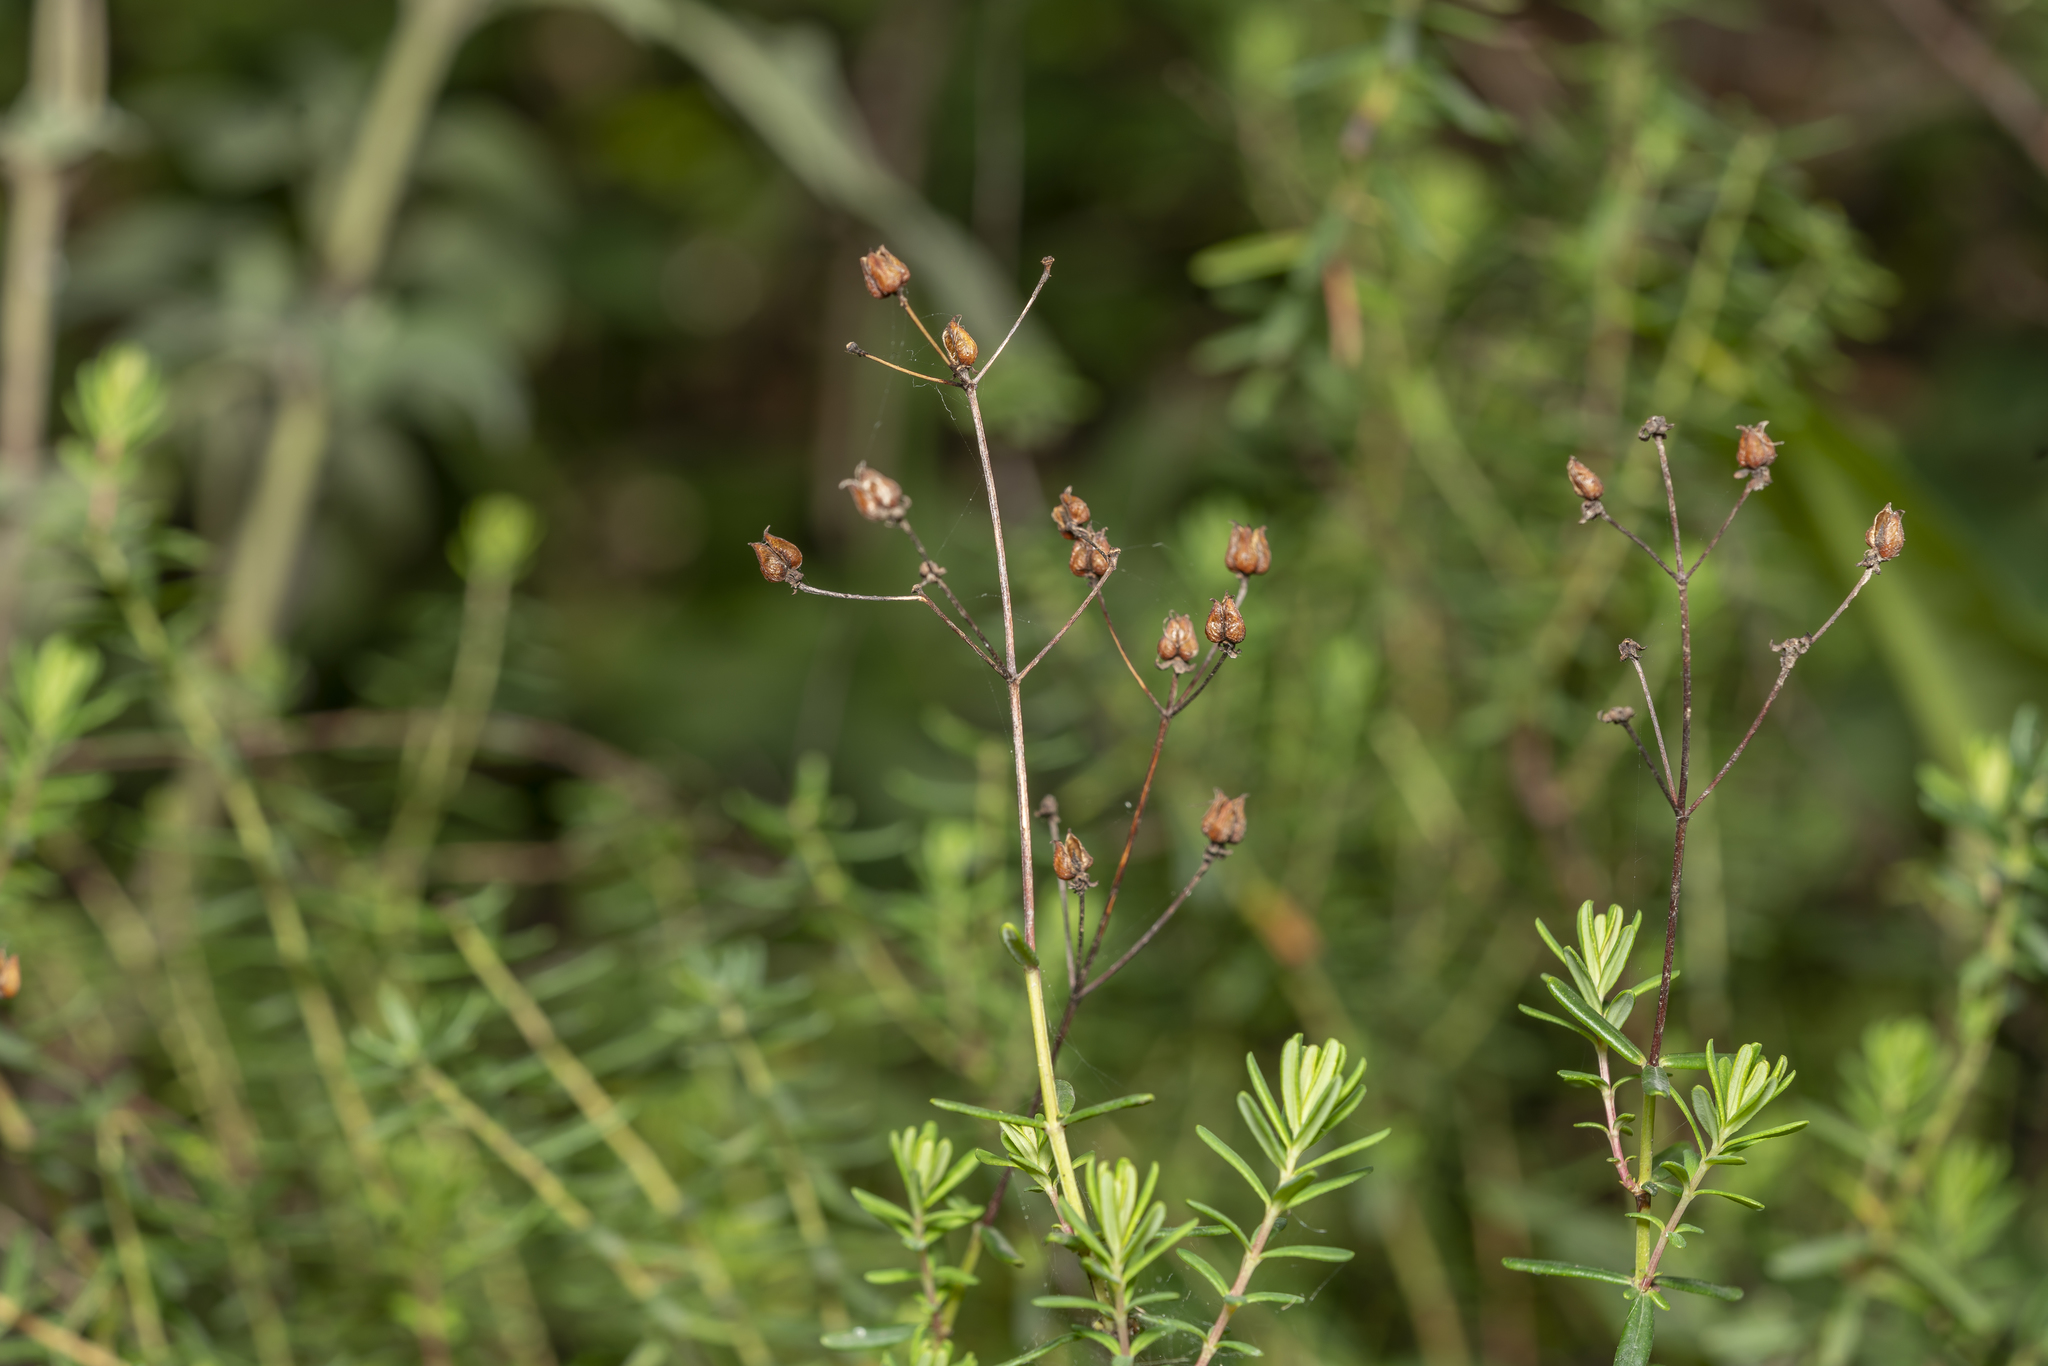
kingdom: Plantae
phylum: Tracheophyta
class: Magnoliopsida
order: Malpighiales
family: Hypericaceae
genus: Hypericum
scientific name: Hypericum empetrifolium
